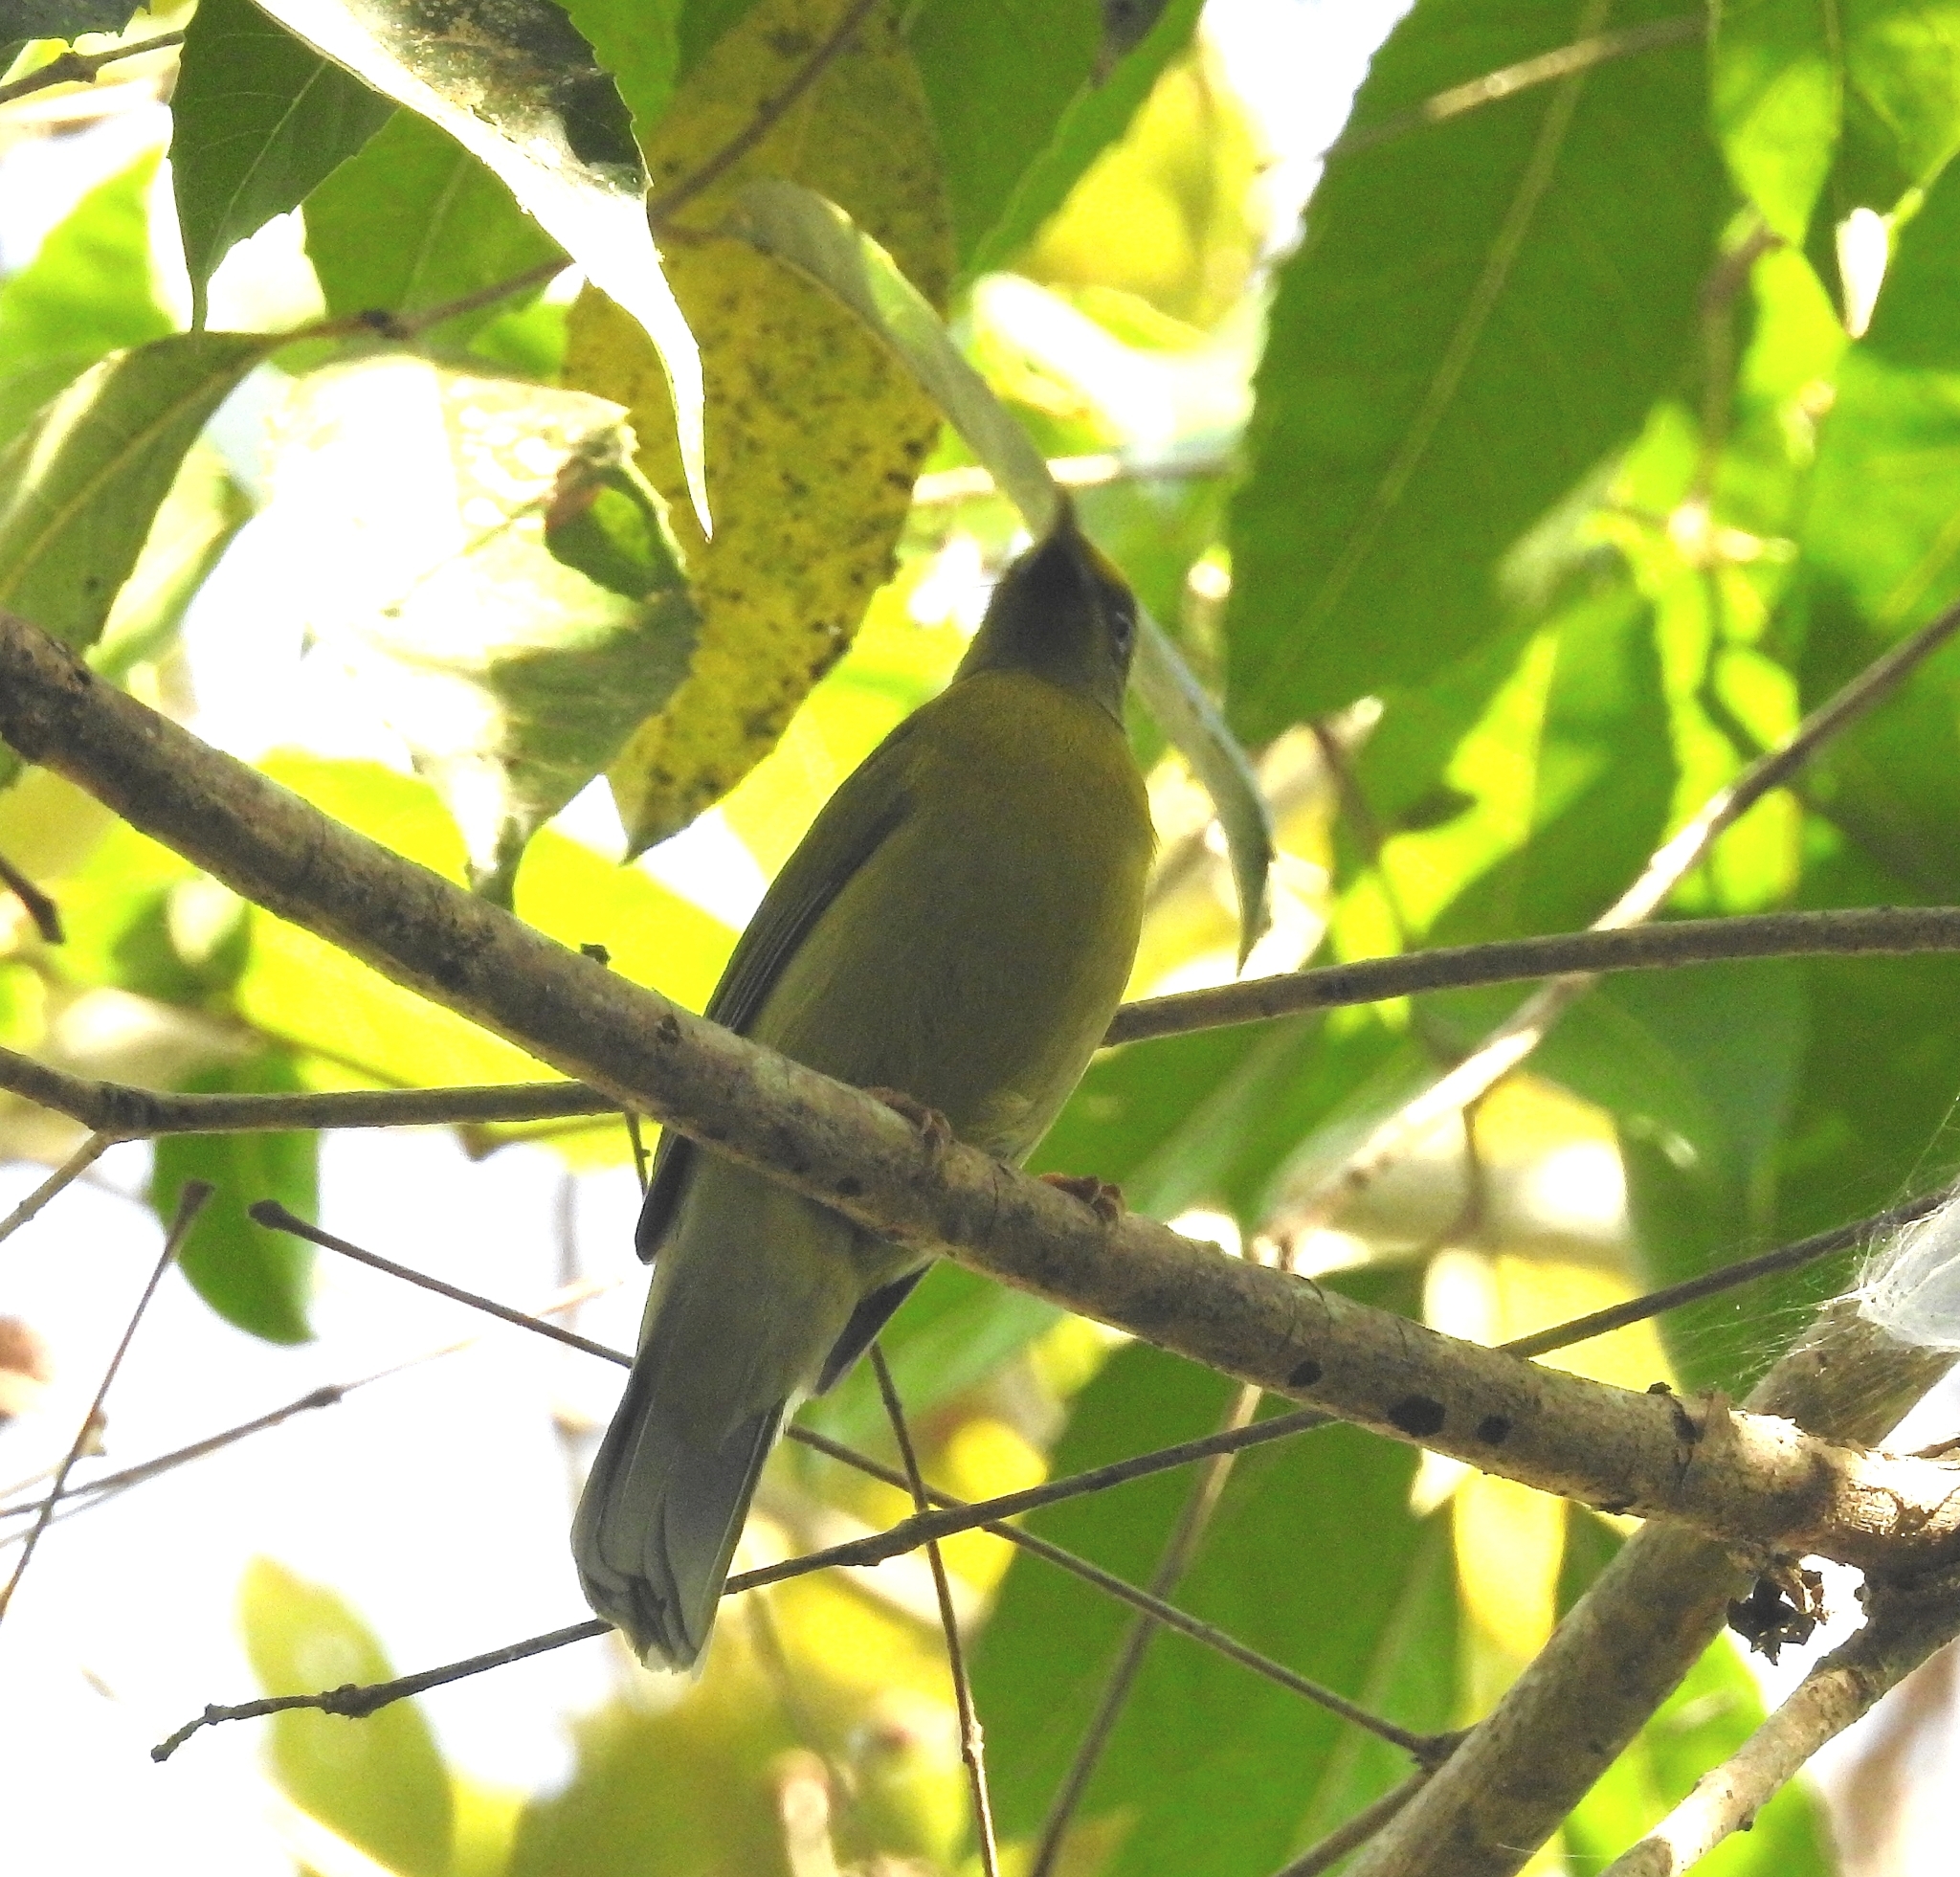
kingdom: Animalia
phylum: Chordata
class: Aves
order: Passeriformes
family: Pycnonotidae
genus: Microtarsus
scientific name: Microtarsus
